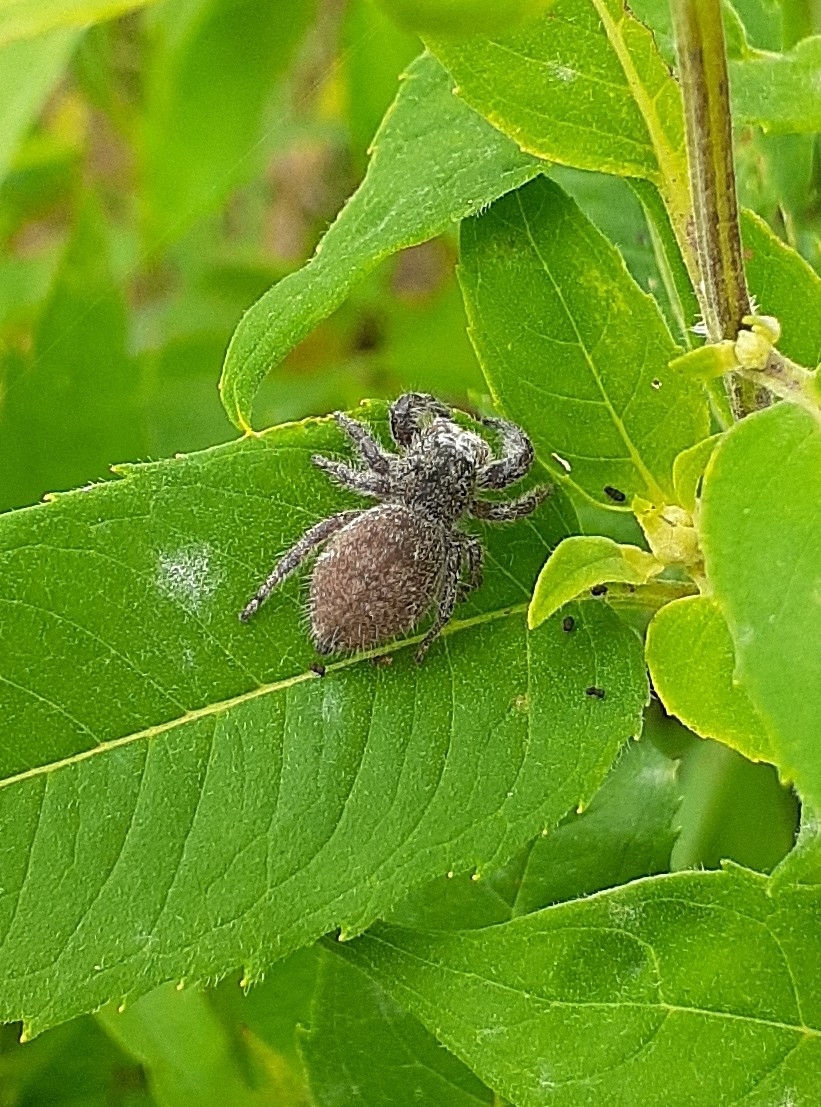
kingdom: Animalia
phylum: Arthropoda
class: Arachnida
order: Araneae
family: Salticidae
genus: Phidippus
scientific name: Phidippus princeps
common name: Grayish jumping spider
